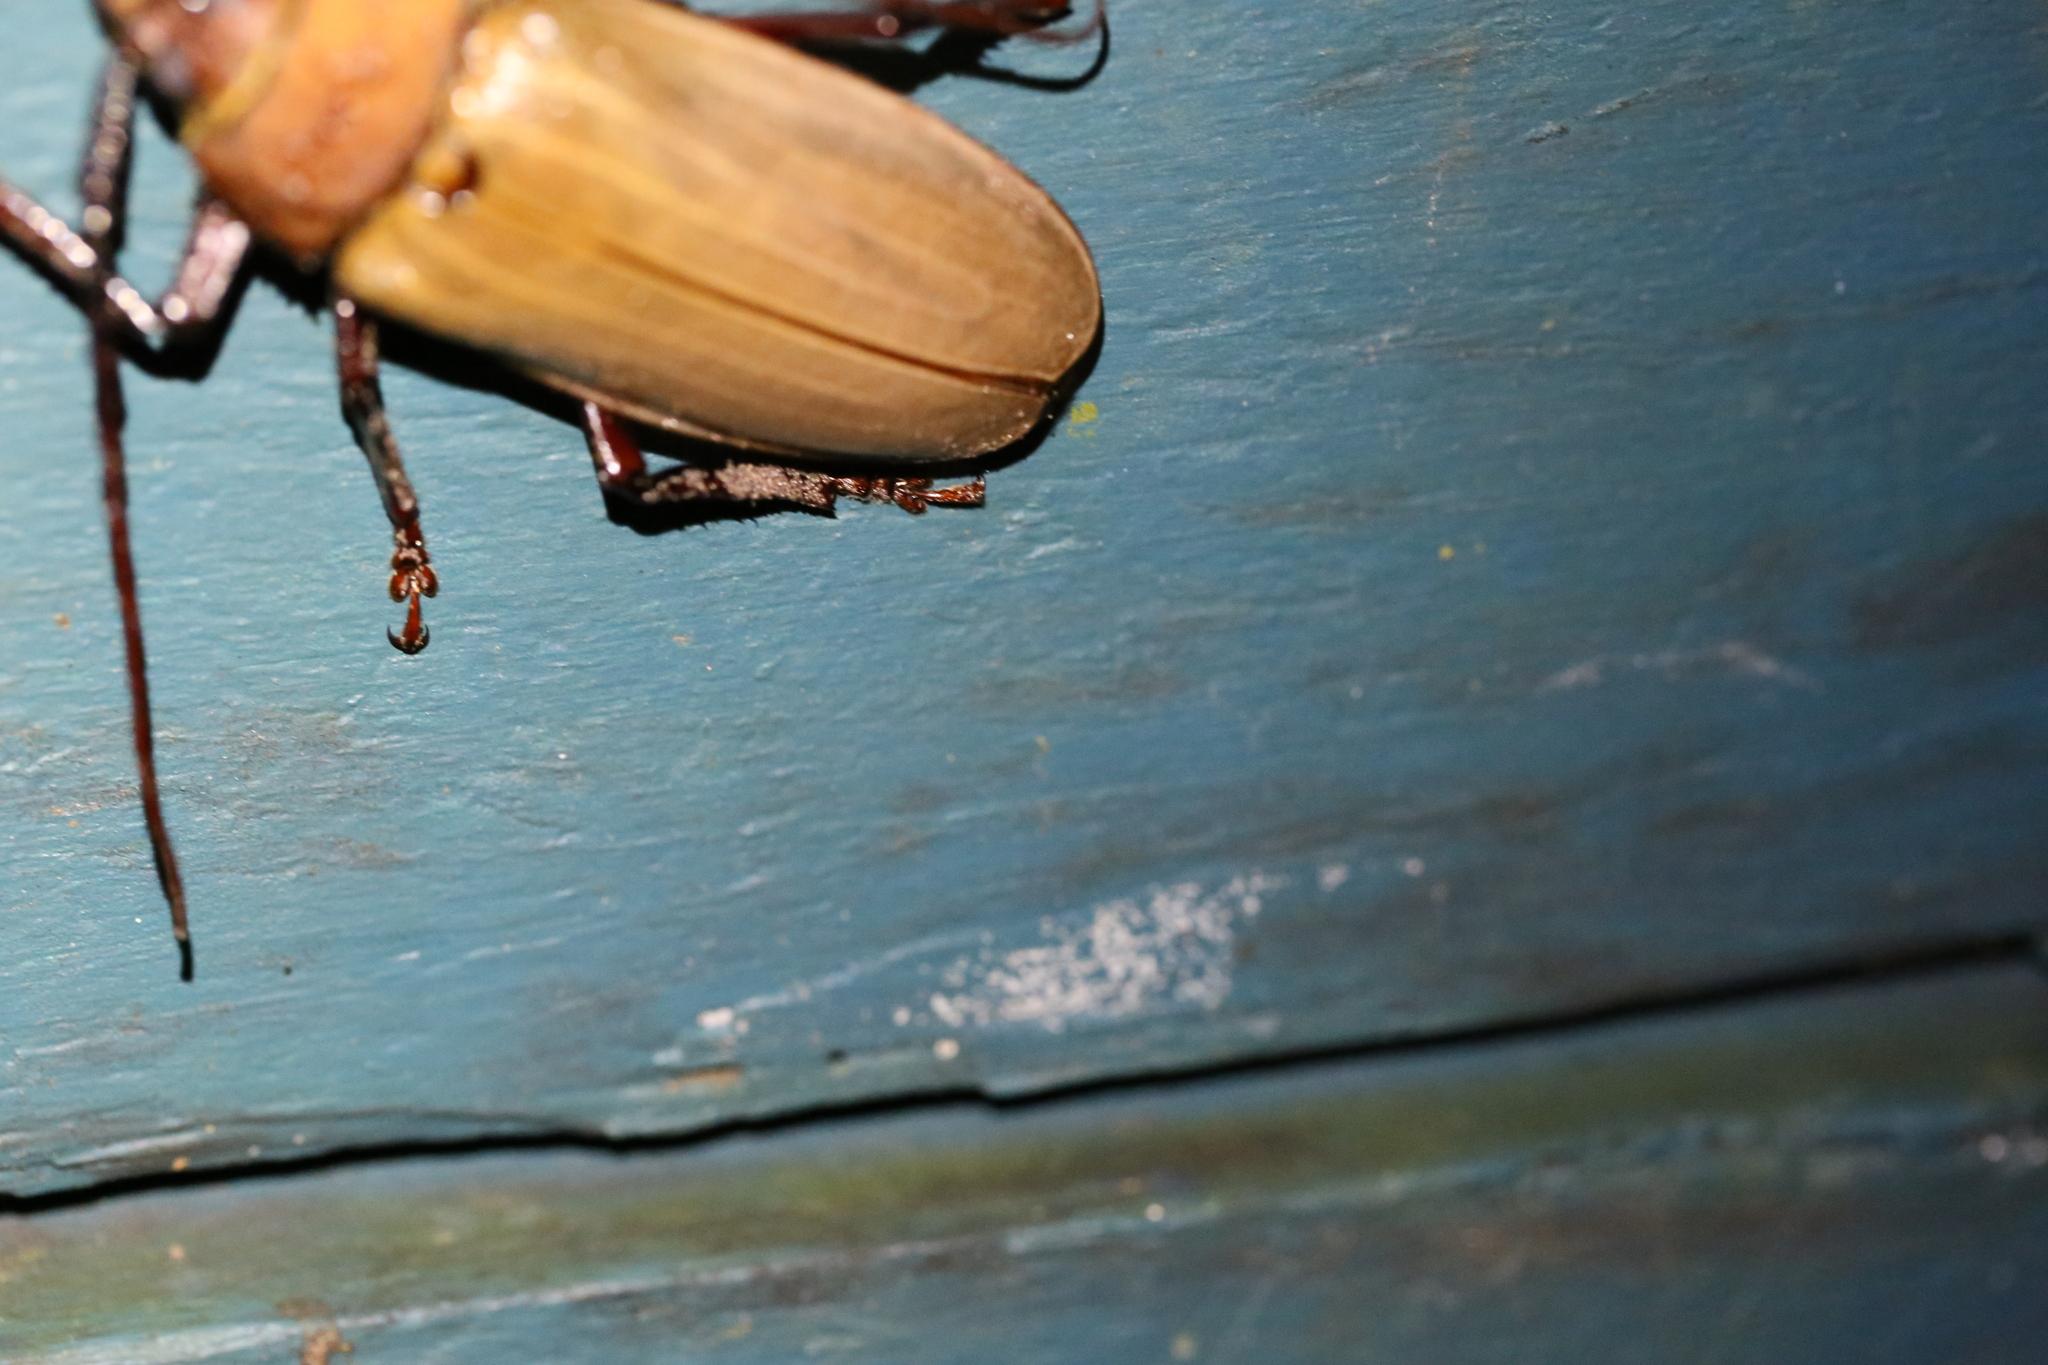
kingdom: Animalia
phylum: Arthropoda
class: Insecta
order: Coleoptera
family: Cerambycidae
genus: Agrianome
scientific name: Agrianome spinicollis
